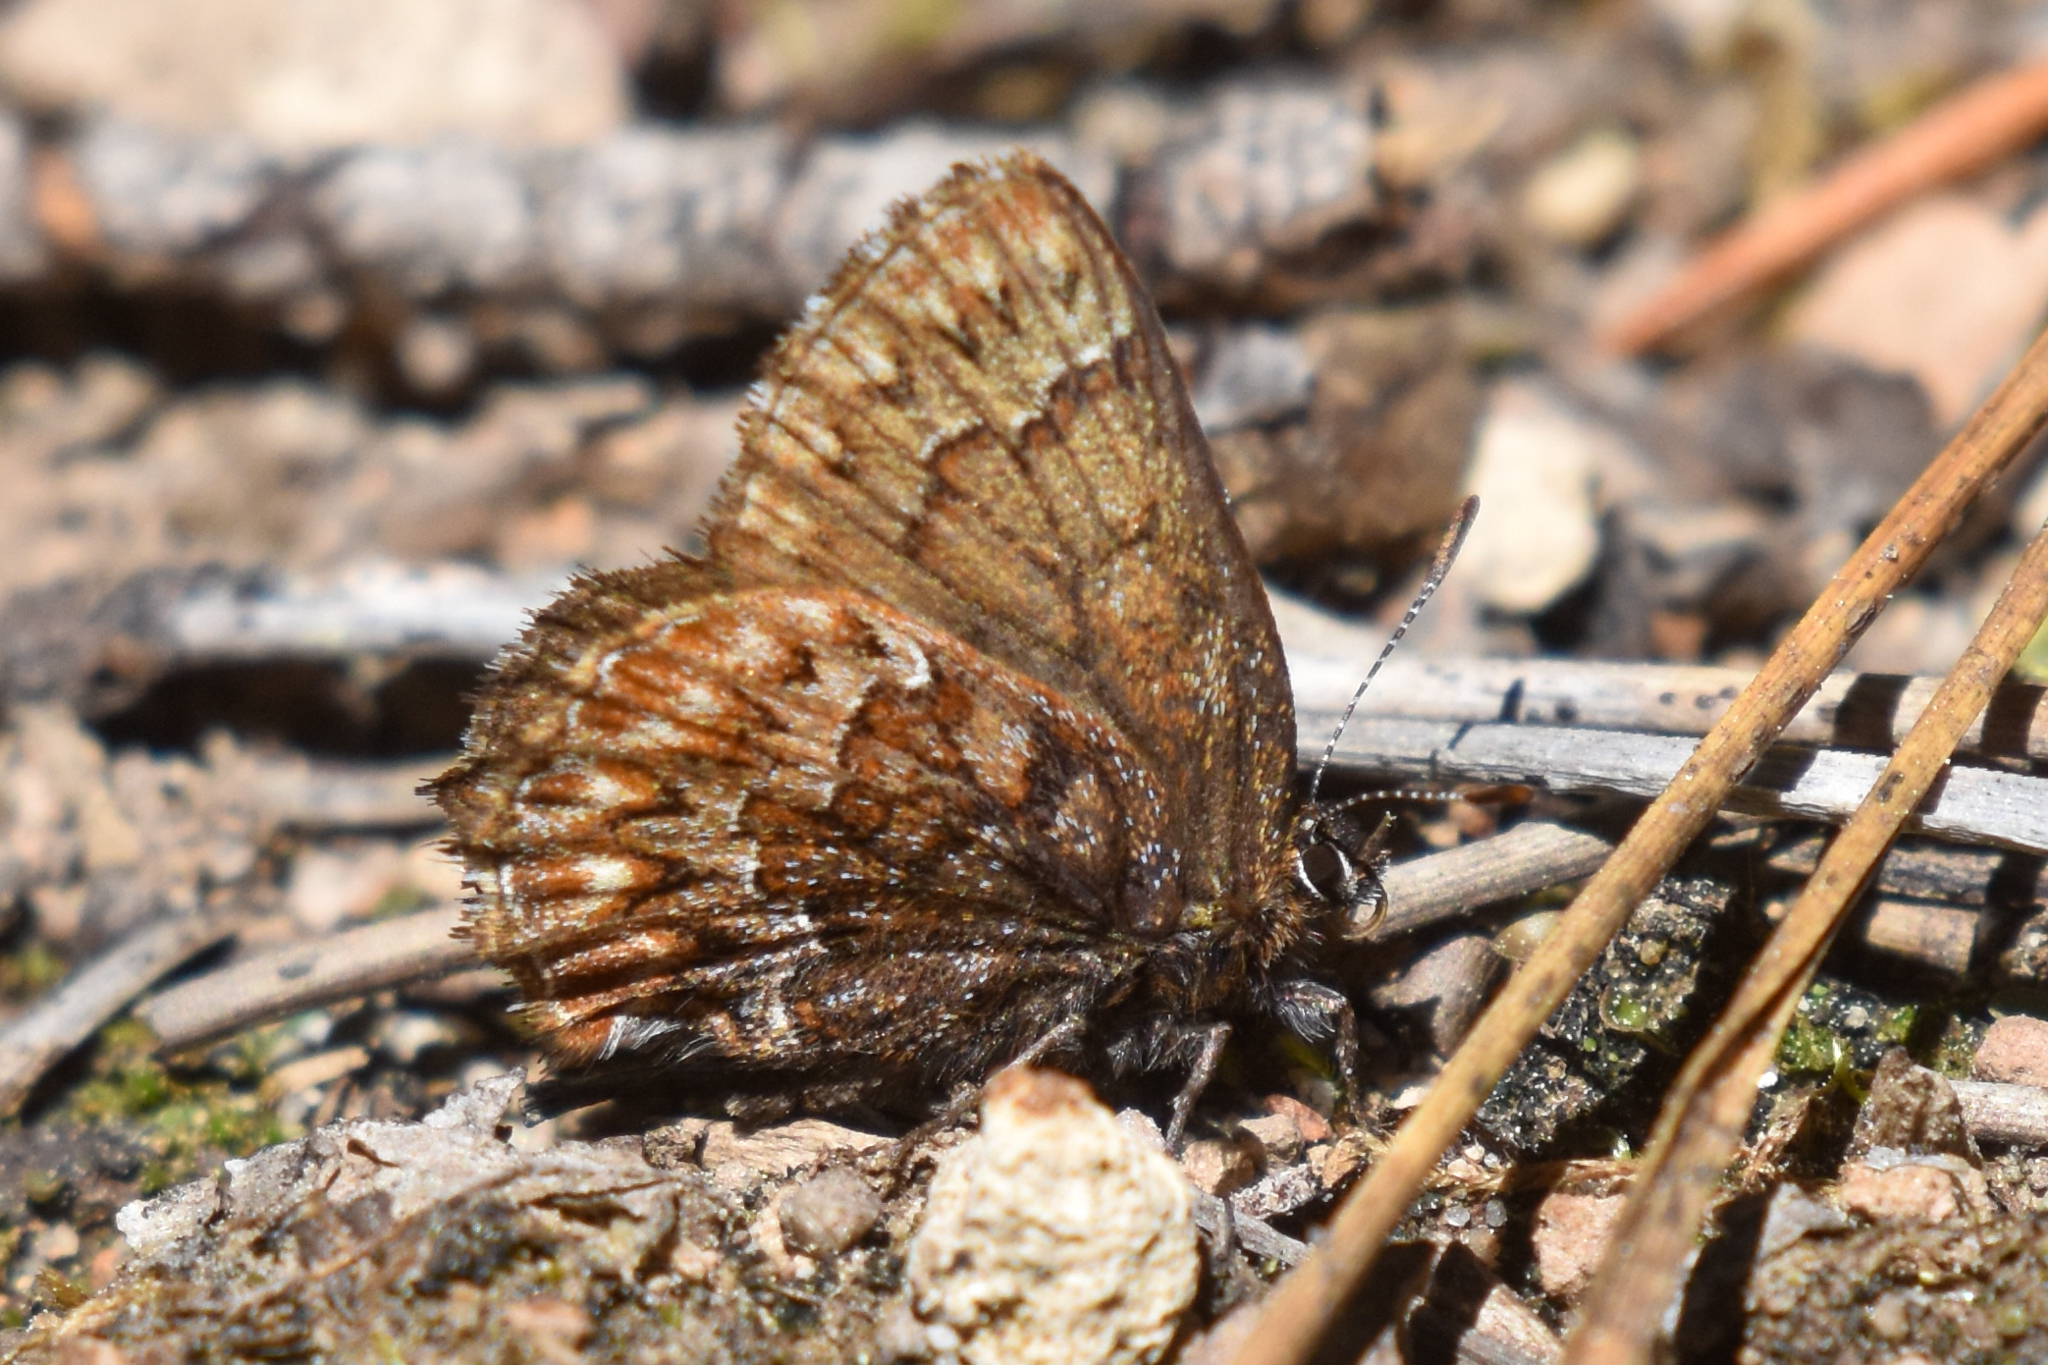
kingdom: Animalia
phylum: Arthropoda
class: Insecta
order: Lepidoptera
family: Lycaenidae
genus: Incisalia
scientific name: Incisalia eryphon
